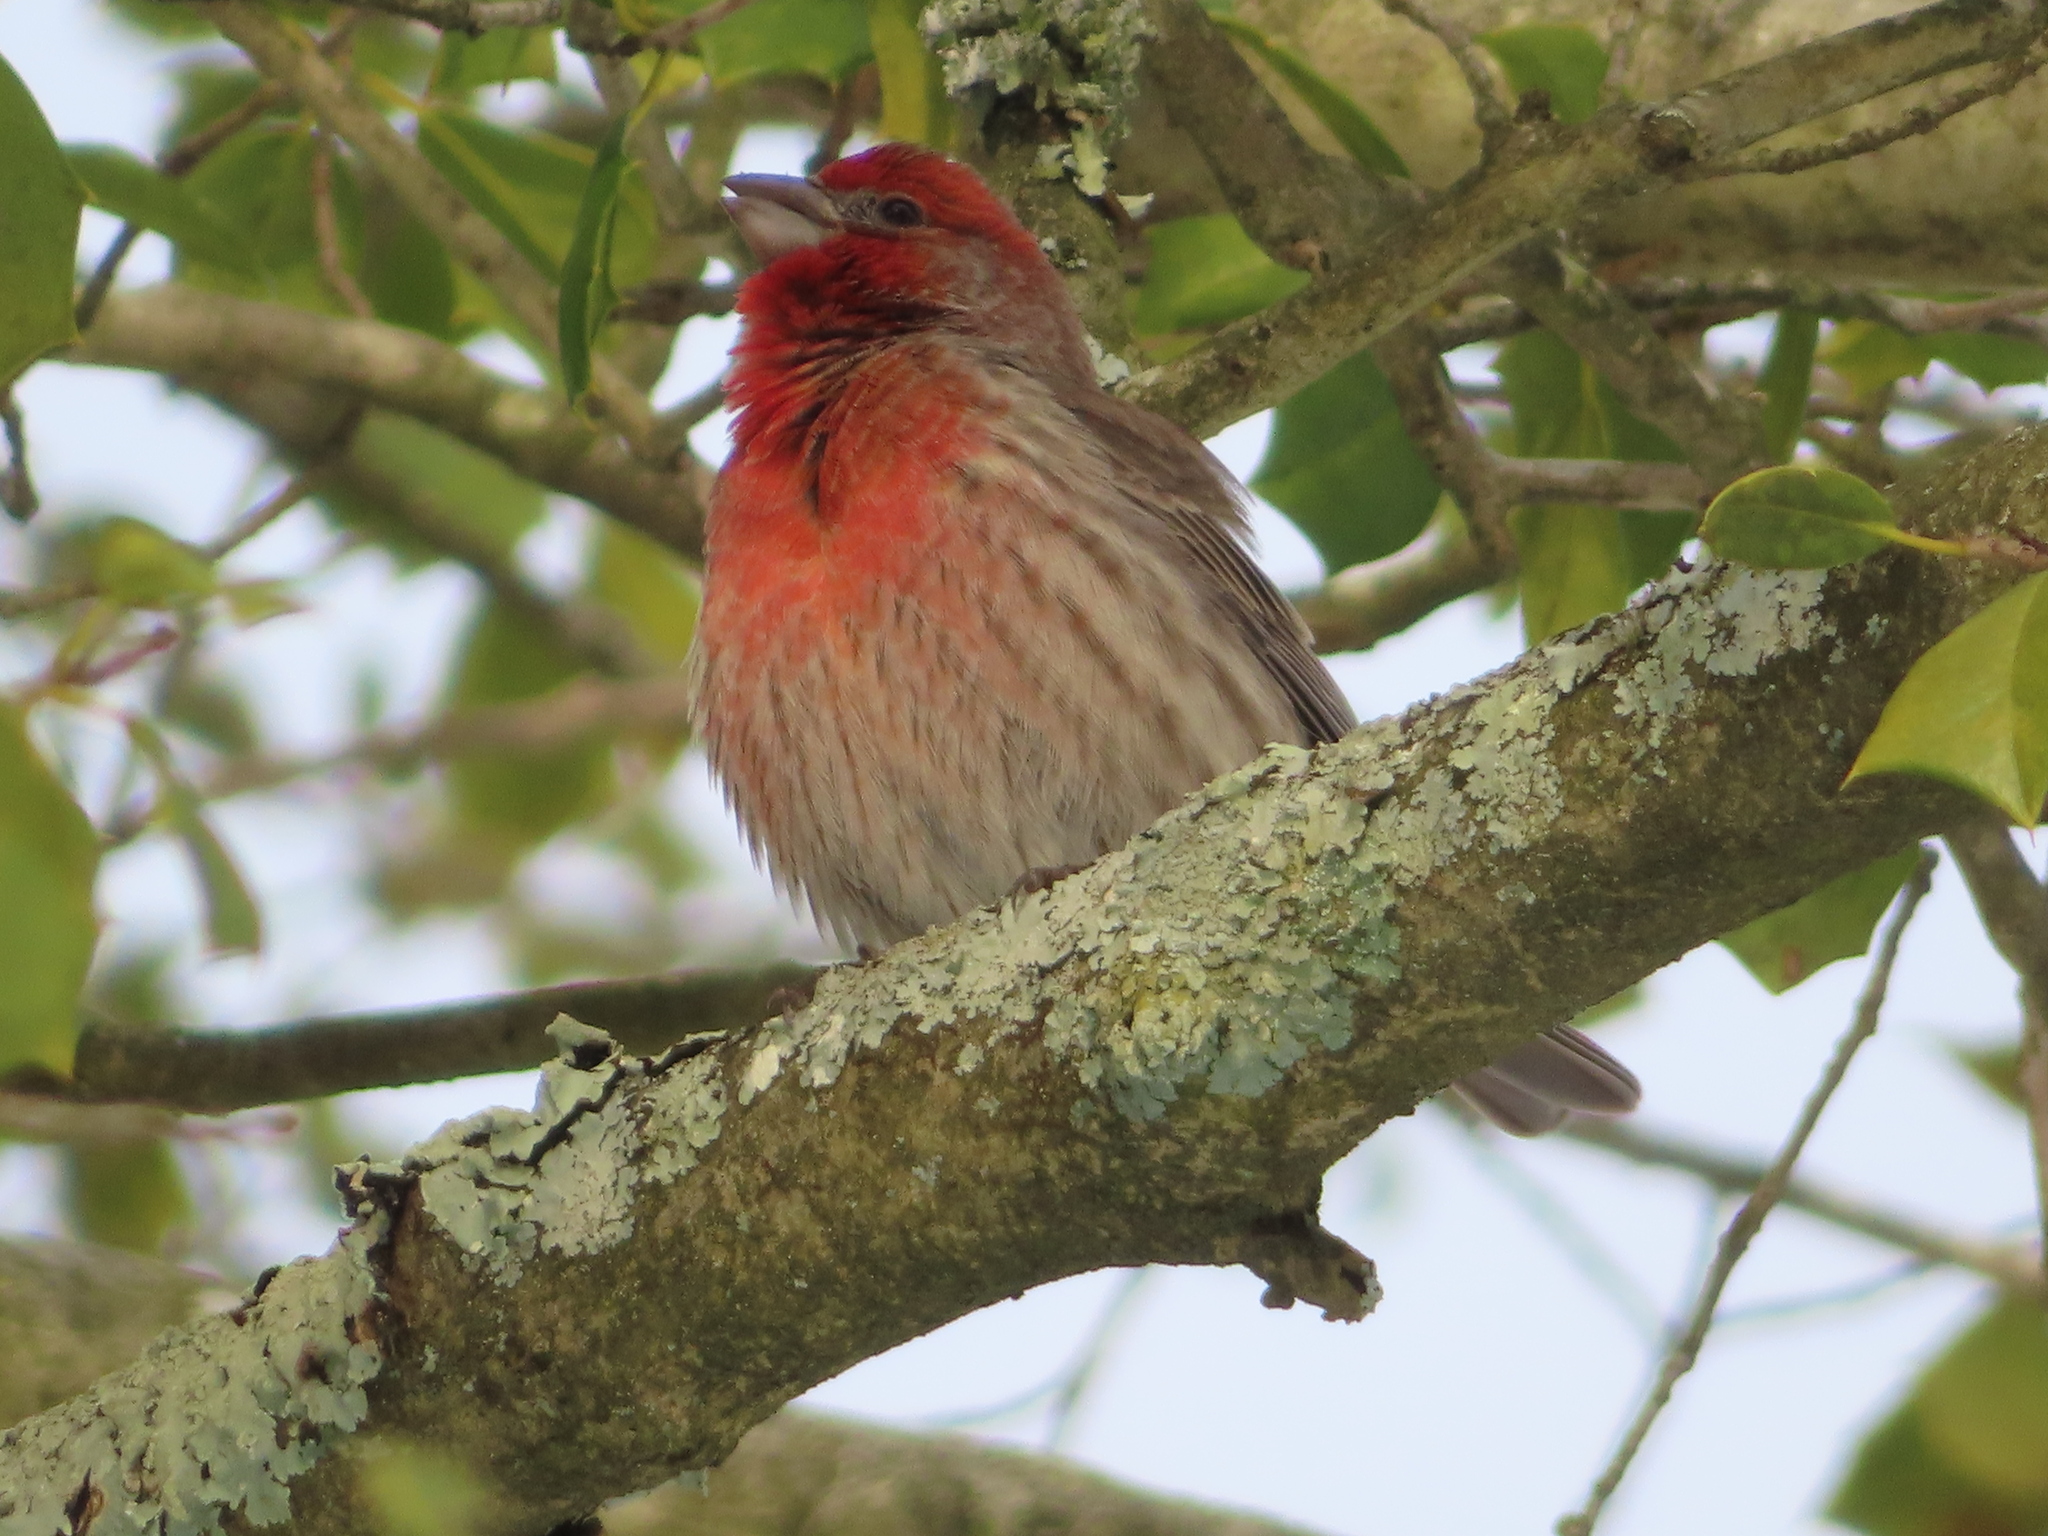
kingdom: Animalia
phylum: Chordata
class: Aves
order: Passeriformes
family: Fringillidae
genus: Haemorhous
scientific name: Haemorhous mexicanus
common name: House finch
